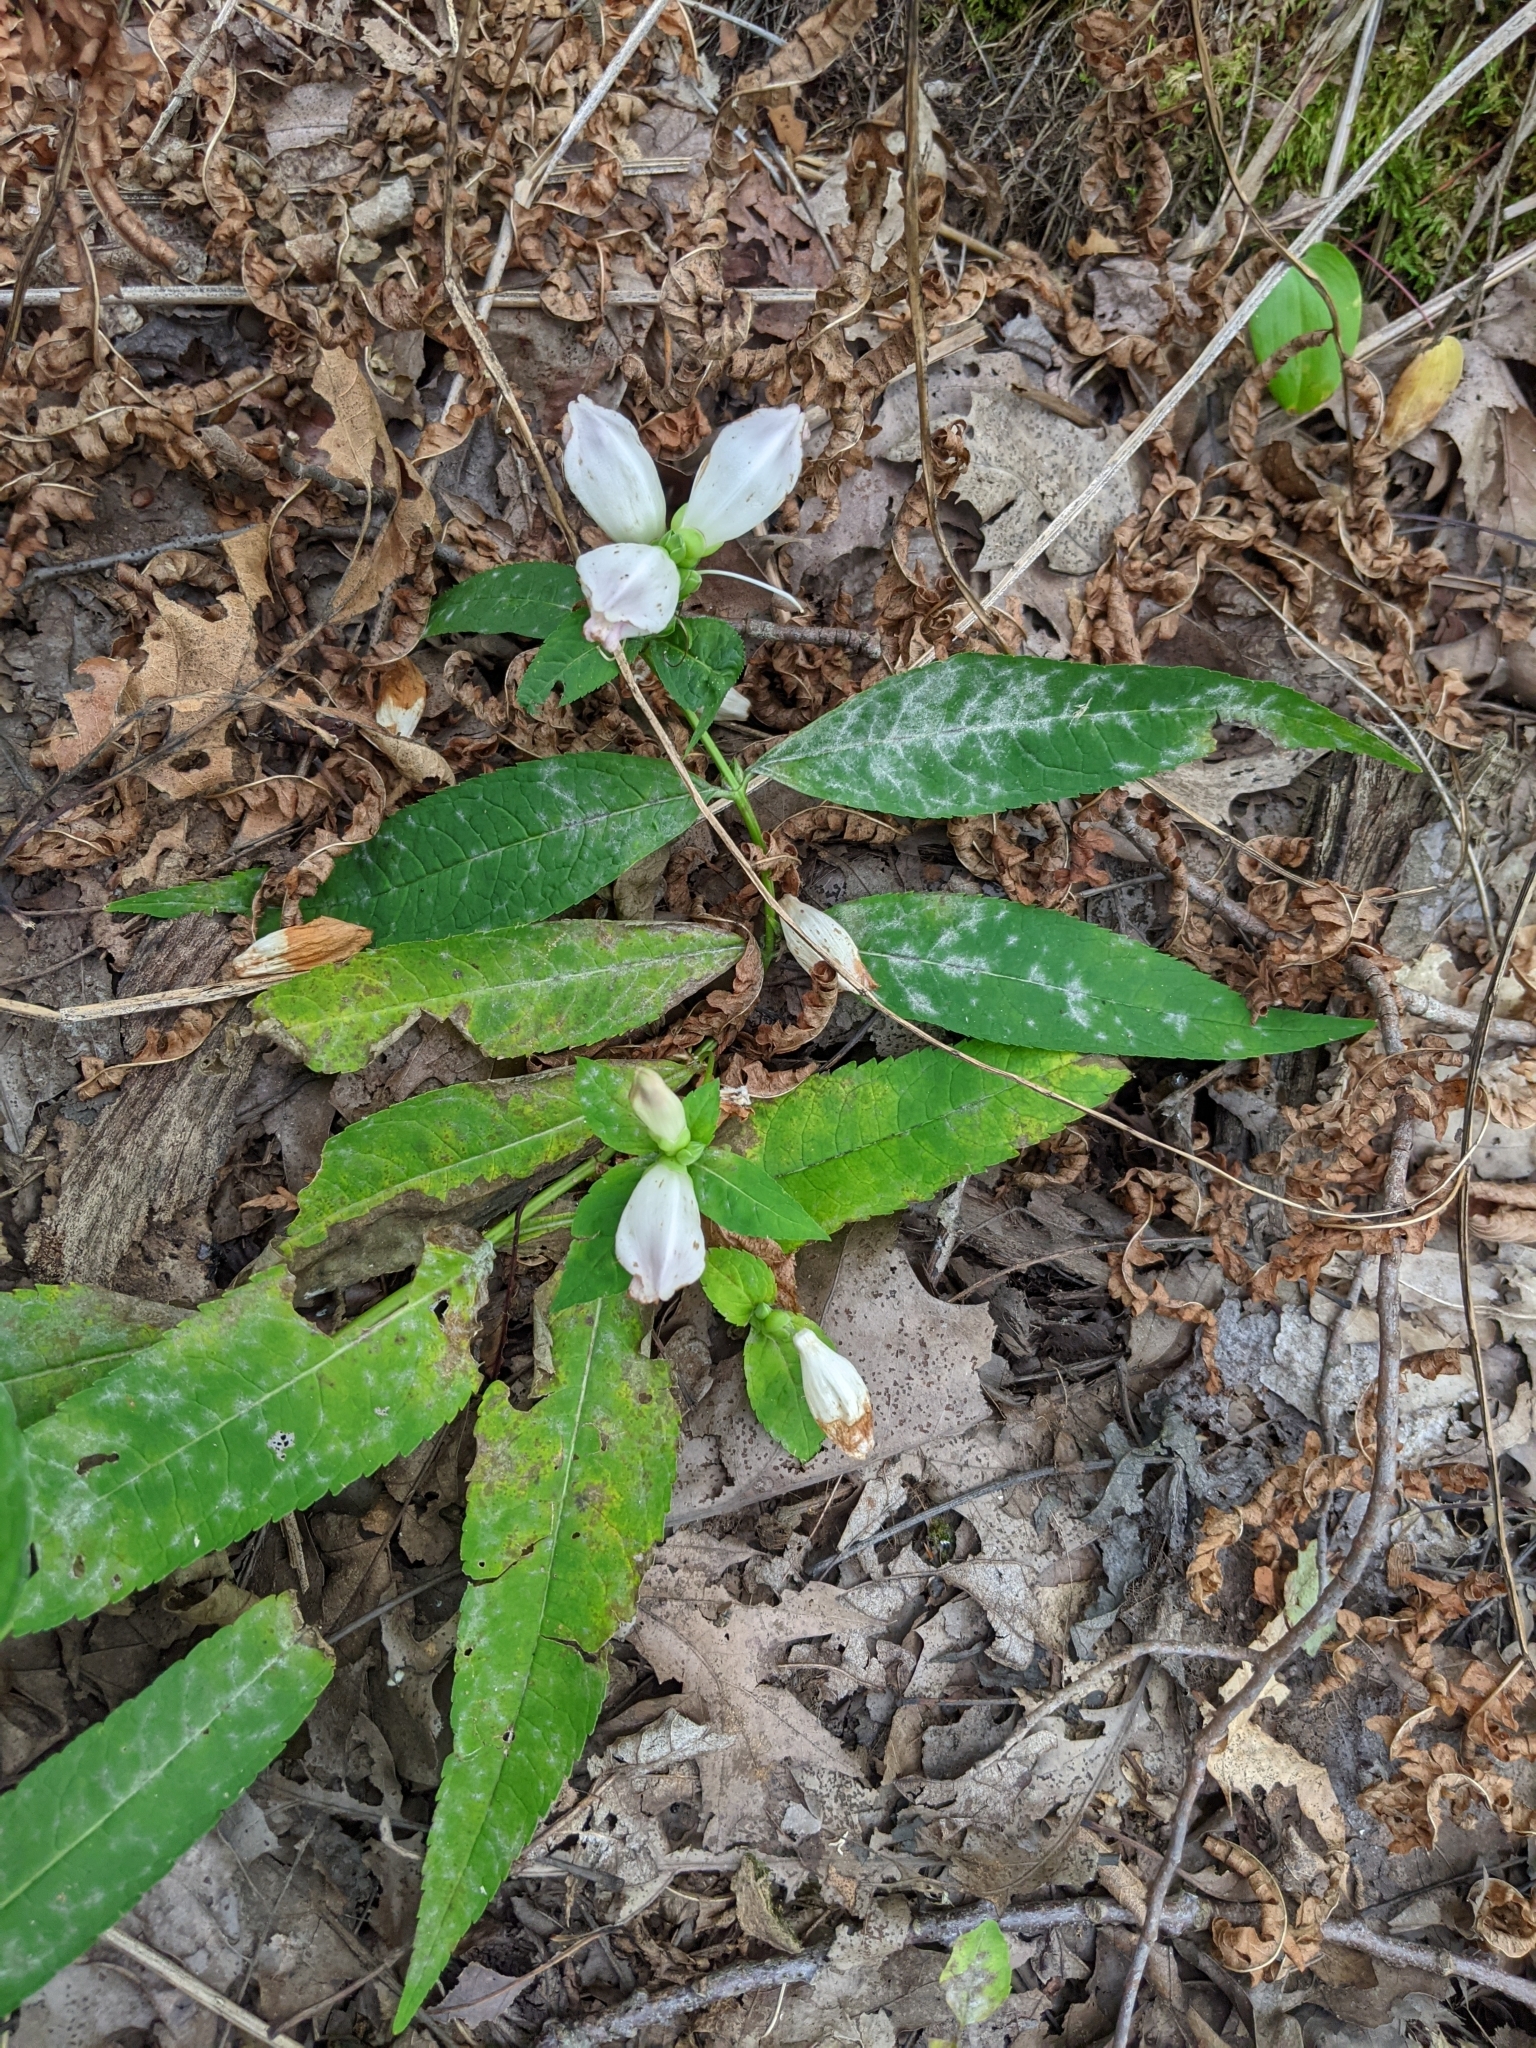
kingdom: Plantae
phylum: Tracheophyta
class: Magnoliopsida
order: Lamiales
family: Plantaginaceae
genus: Chelone
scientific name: Chelone glabra
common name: Snakehead
